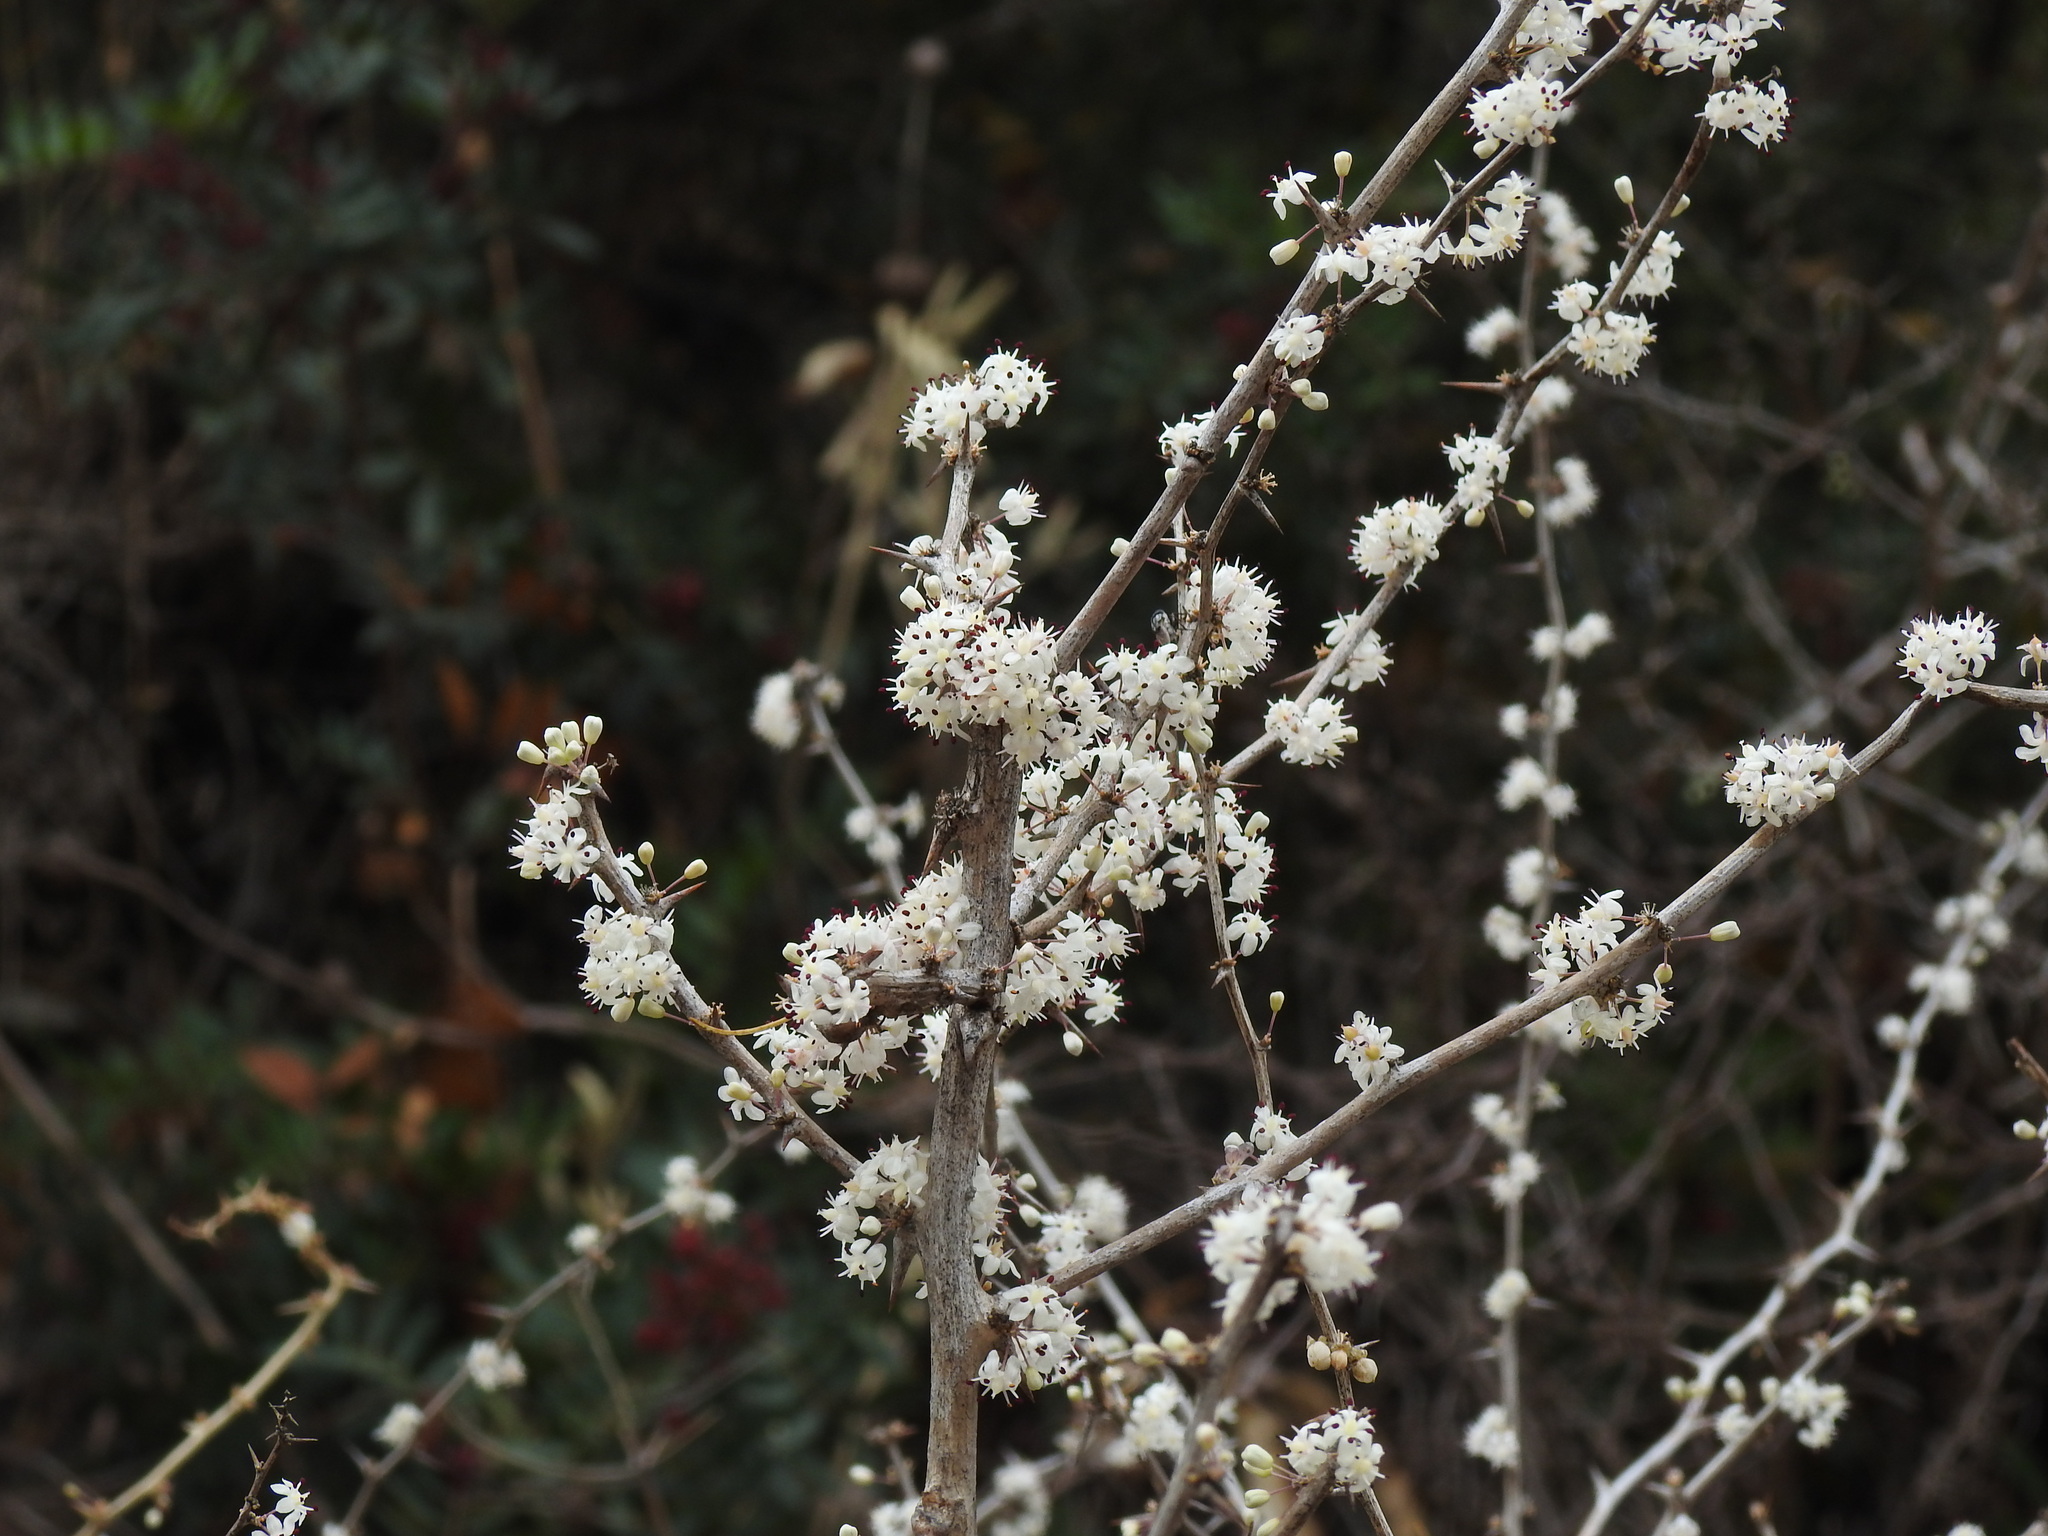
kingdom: Plantae
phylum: Tracheophyta
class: Liliopsida
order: Asparagales
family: Asparagaceae
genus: Asparagus
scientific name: Asparagus albus
